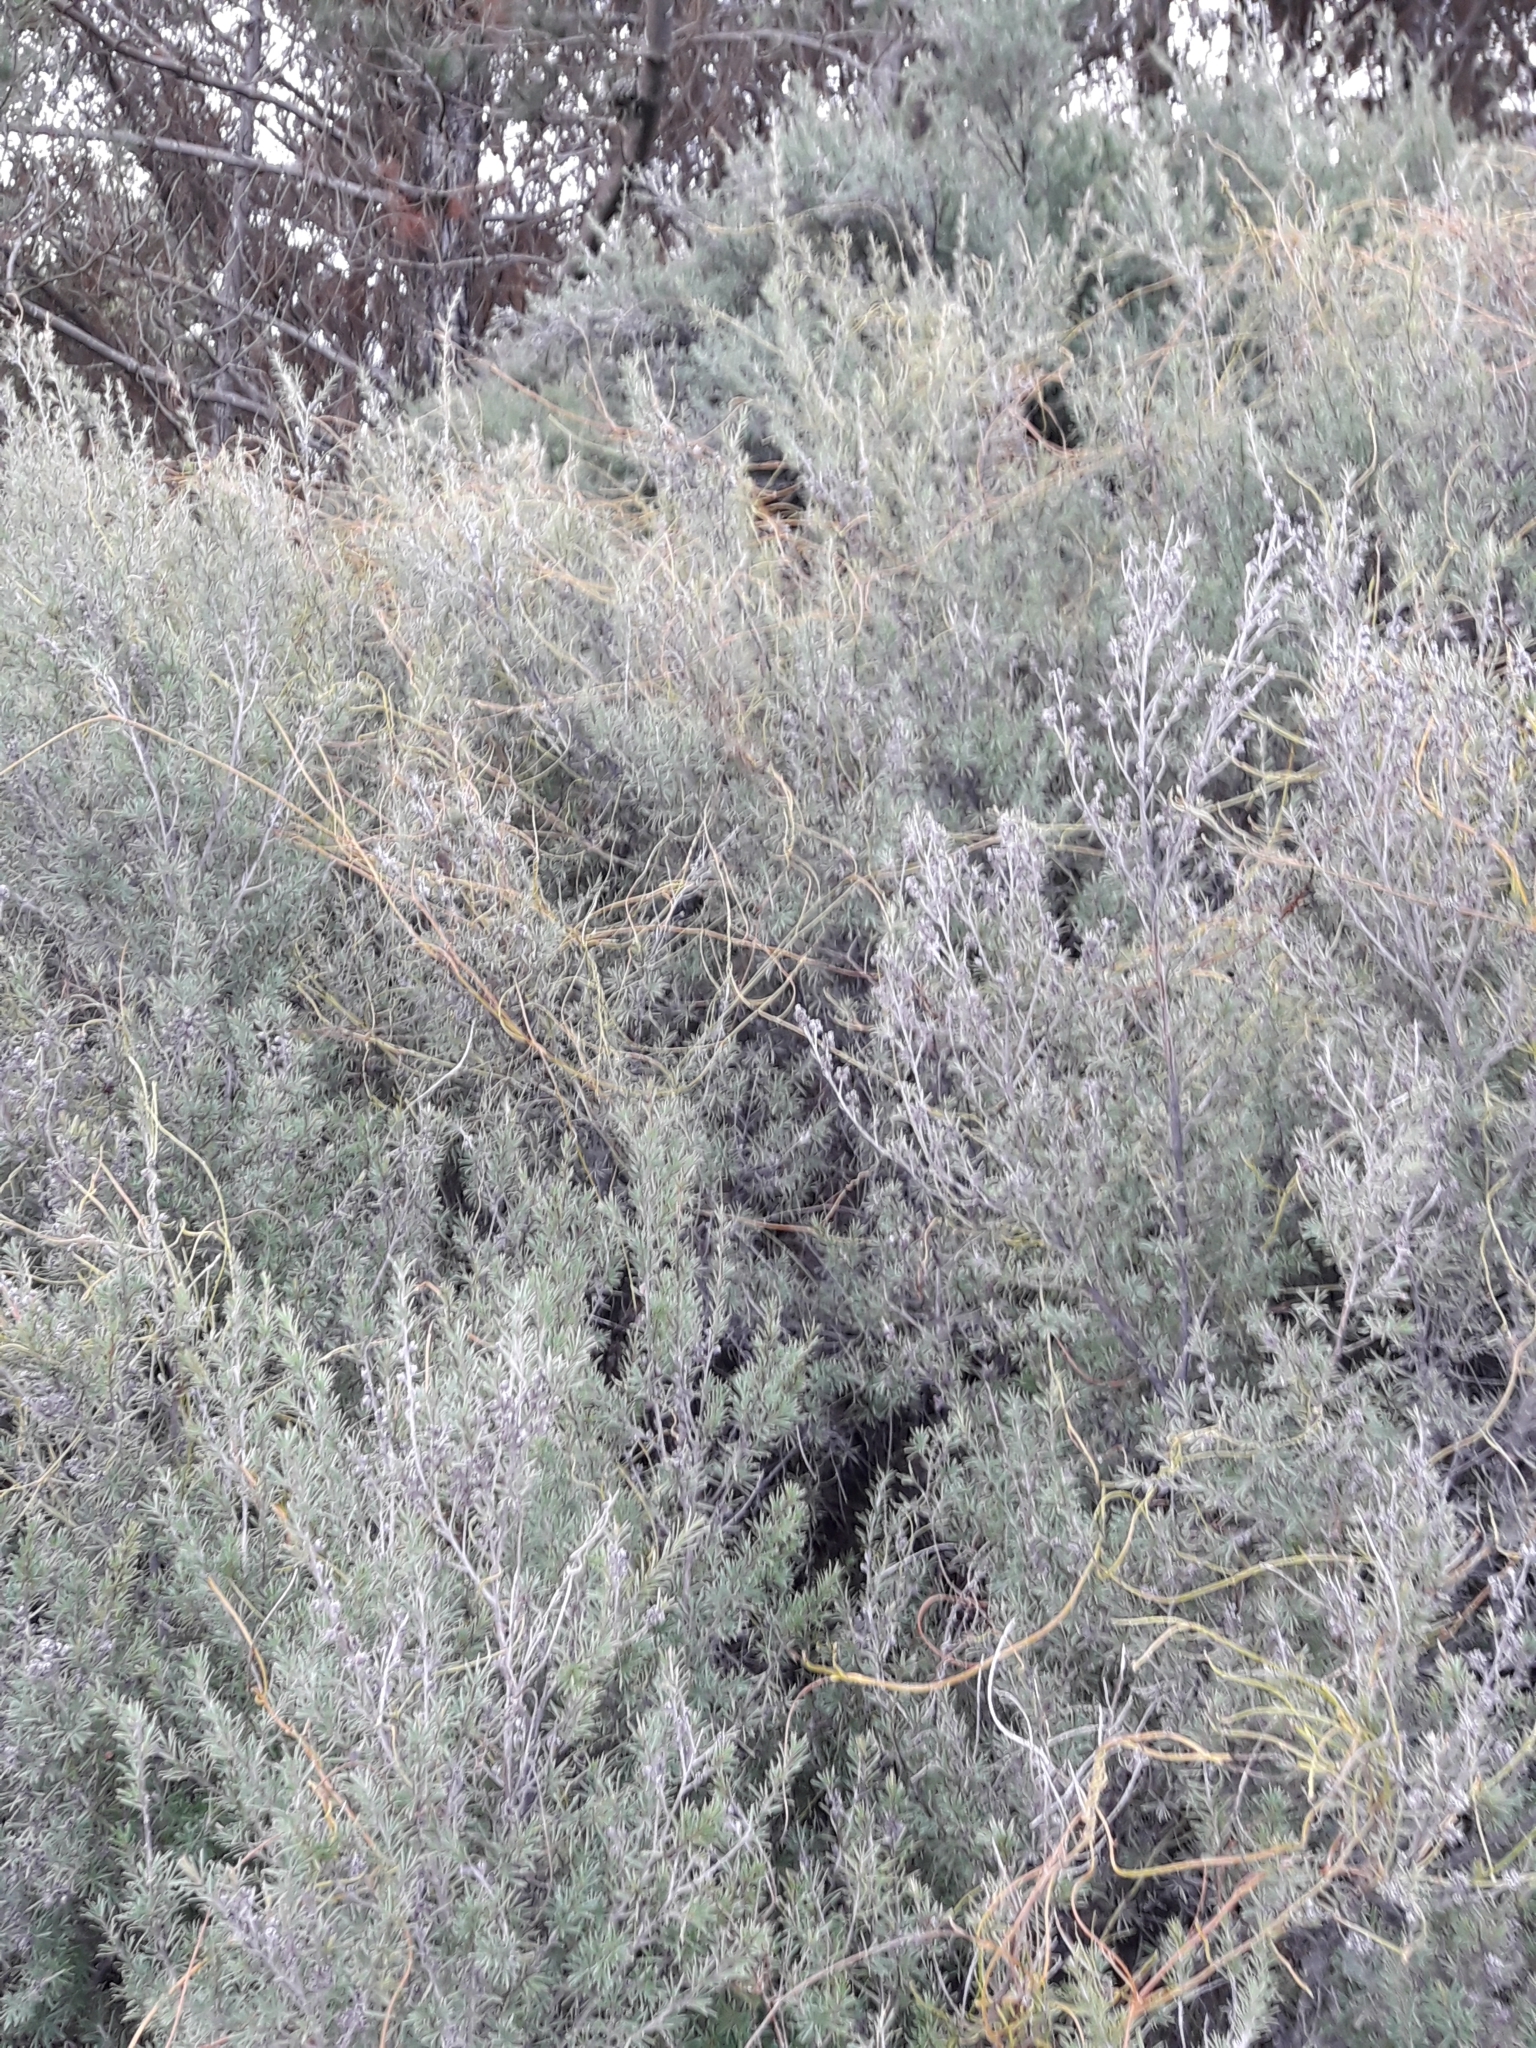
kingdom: Plantae
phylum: Tracheophyta
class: Magnoliopsida
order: Laurales
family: Lauraceae
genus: Cassytha
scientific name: Cassytha paniculata
